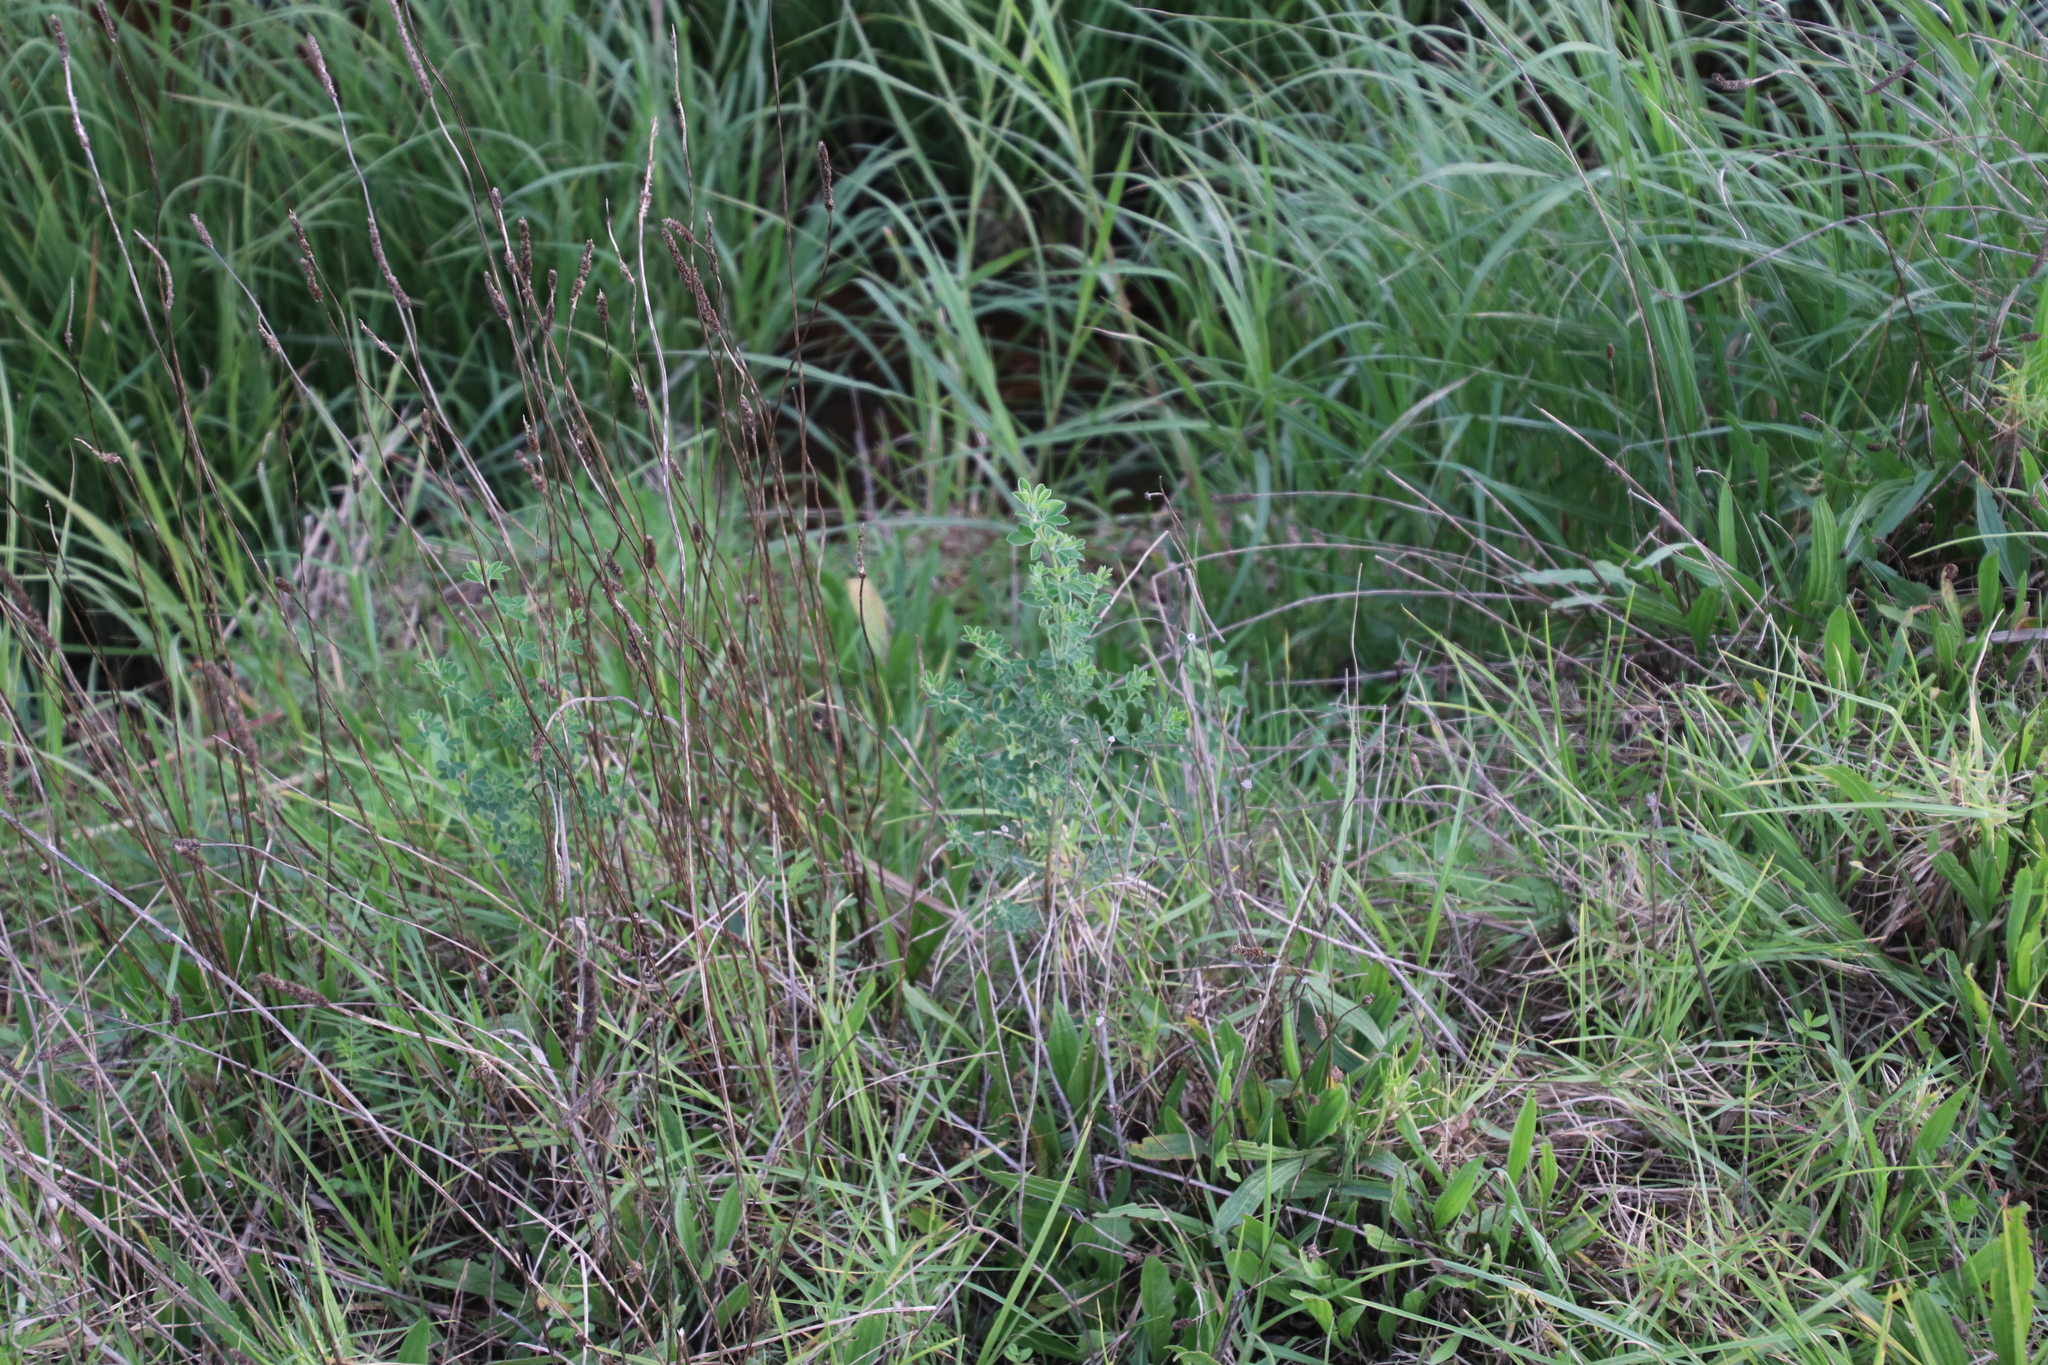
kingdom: Plantae
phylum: Tracheophyta
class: Magnoliopsida
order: Fabales
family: Fabaceae
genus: Genista
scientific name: Genista monspessulana
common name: Montpellier broom
